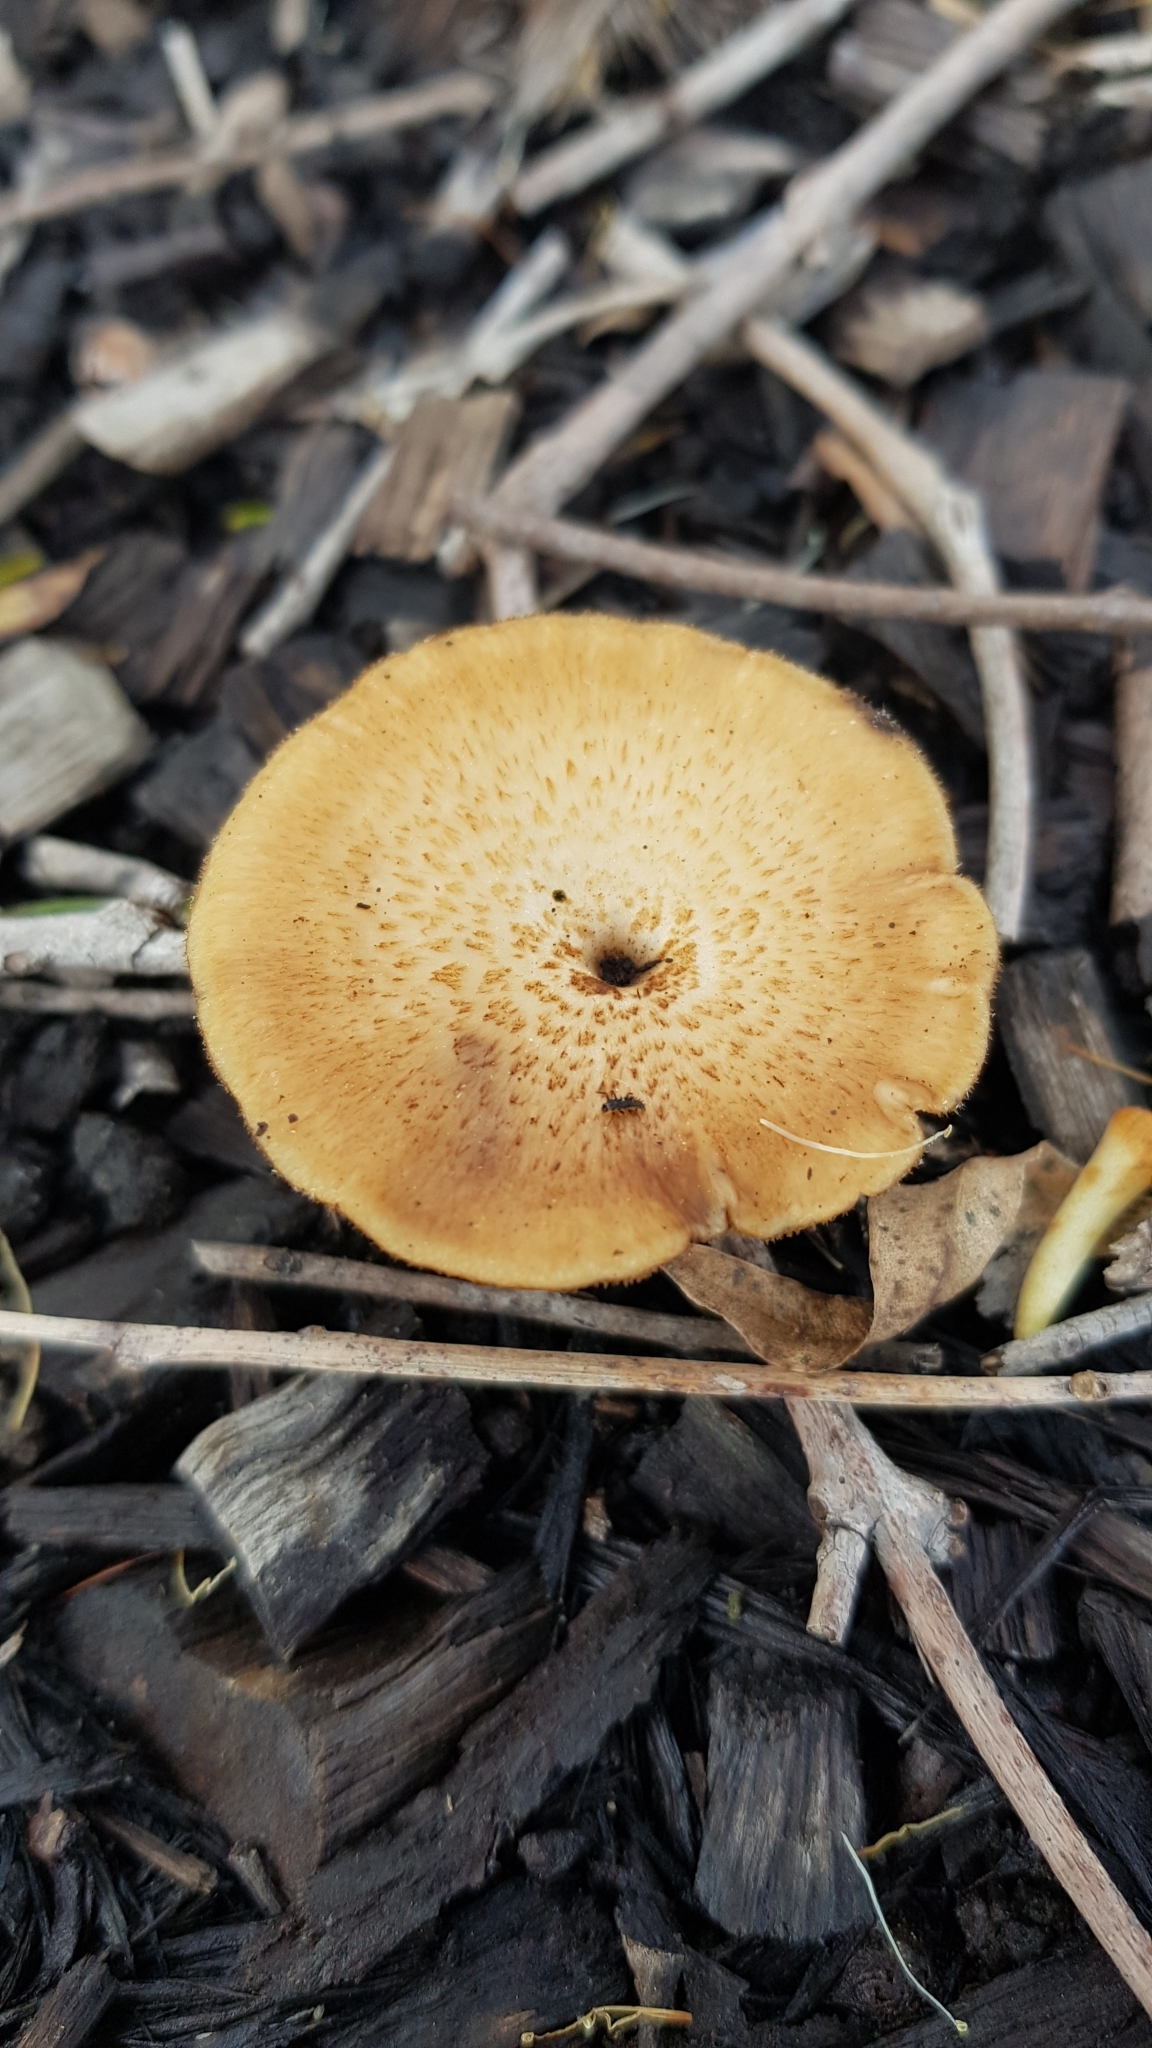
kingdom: Fungi
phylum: Basidiomycota
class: Agaricomycetes
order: Polyporales
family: Polyporaceae
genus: Lentinus
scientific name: Lentinus arcularius
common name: Spring polypore
